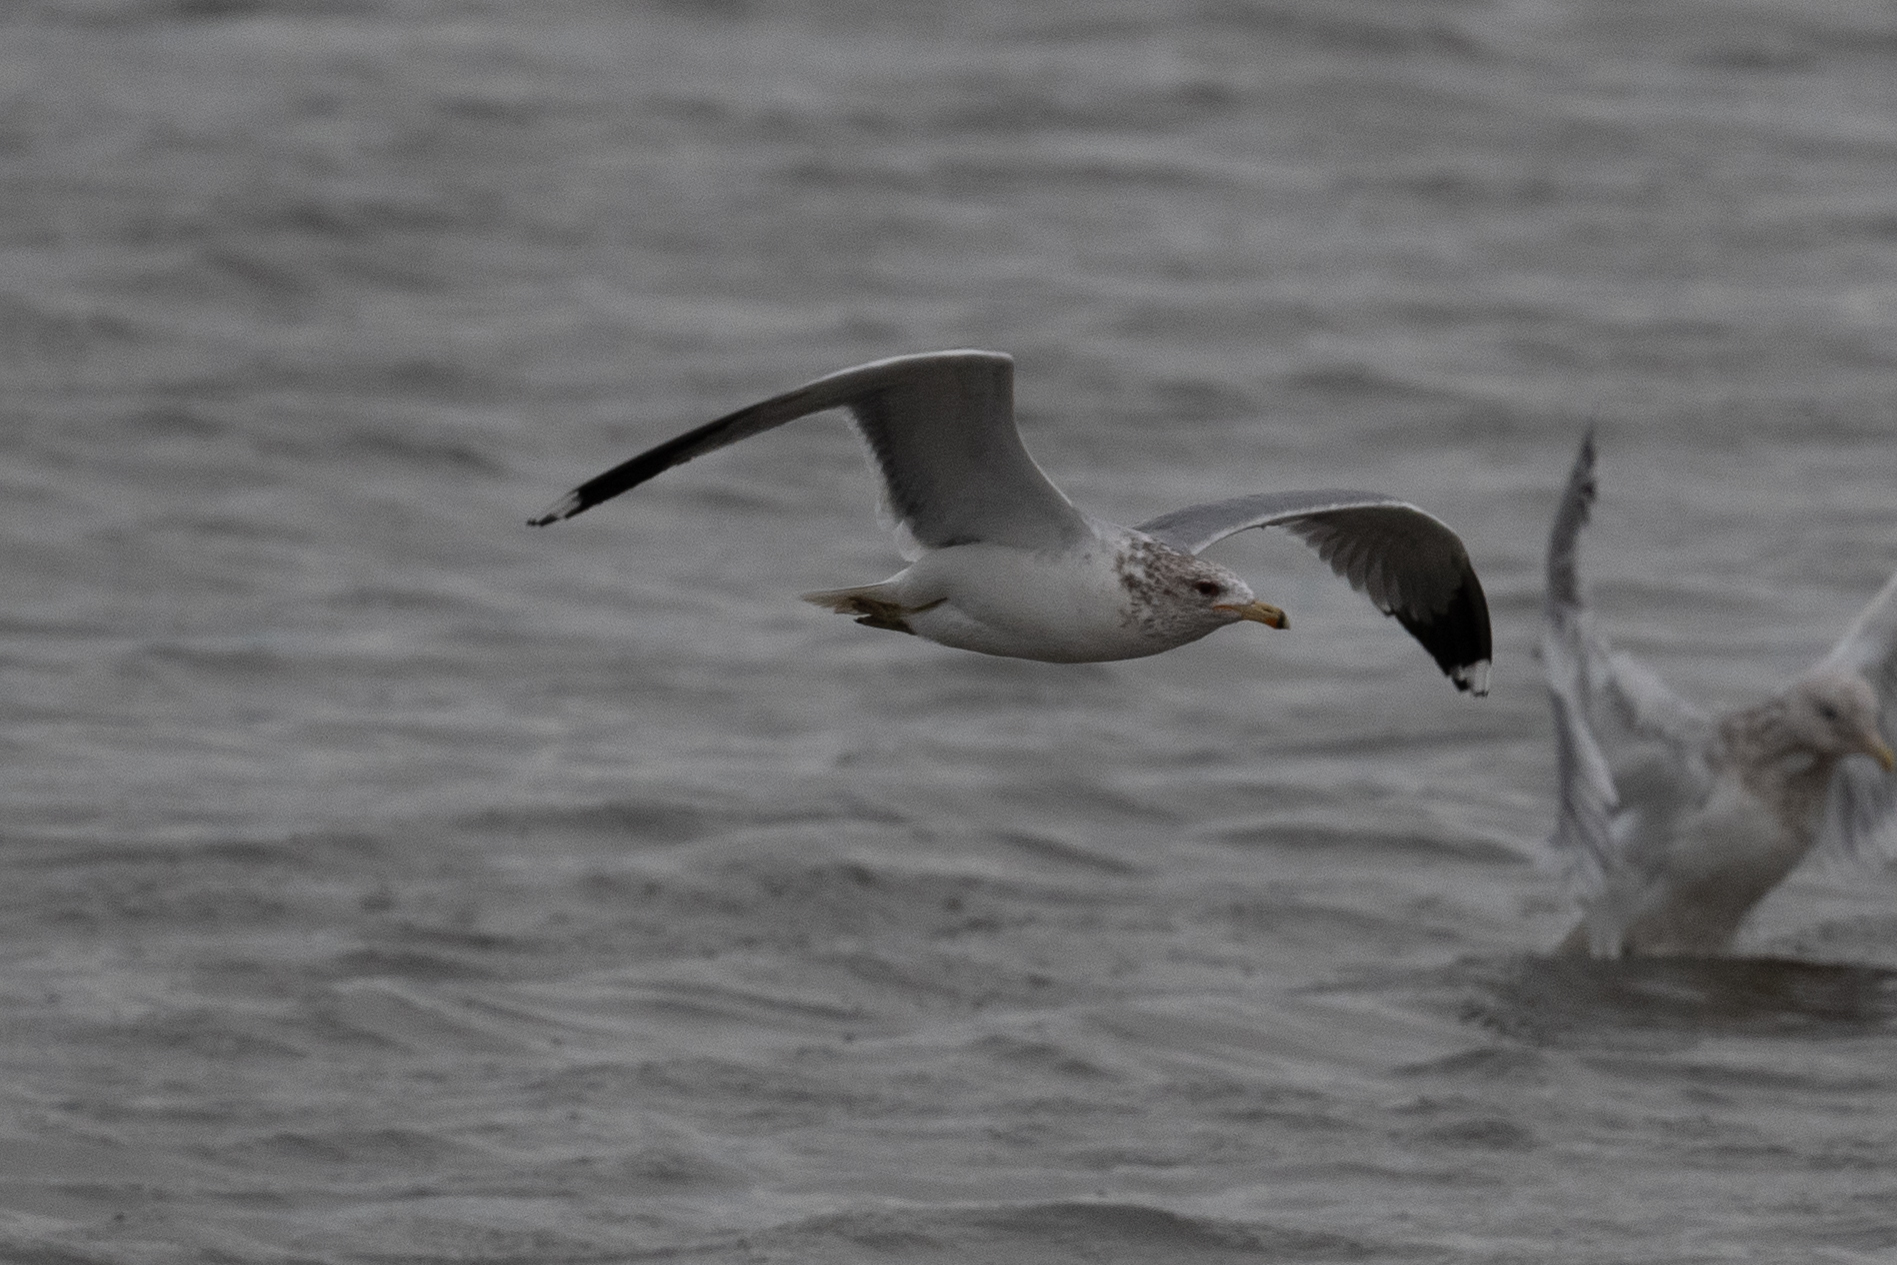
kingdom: Animalia
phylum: Chordata
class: Aves
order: Charadriiformes
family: Laridae
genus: Larus
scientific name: Larus californicus
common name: California gull
